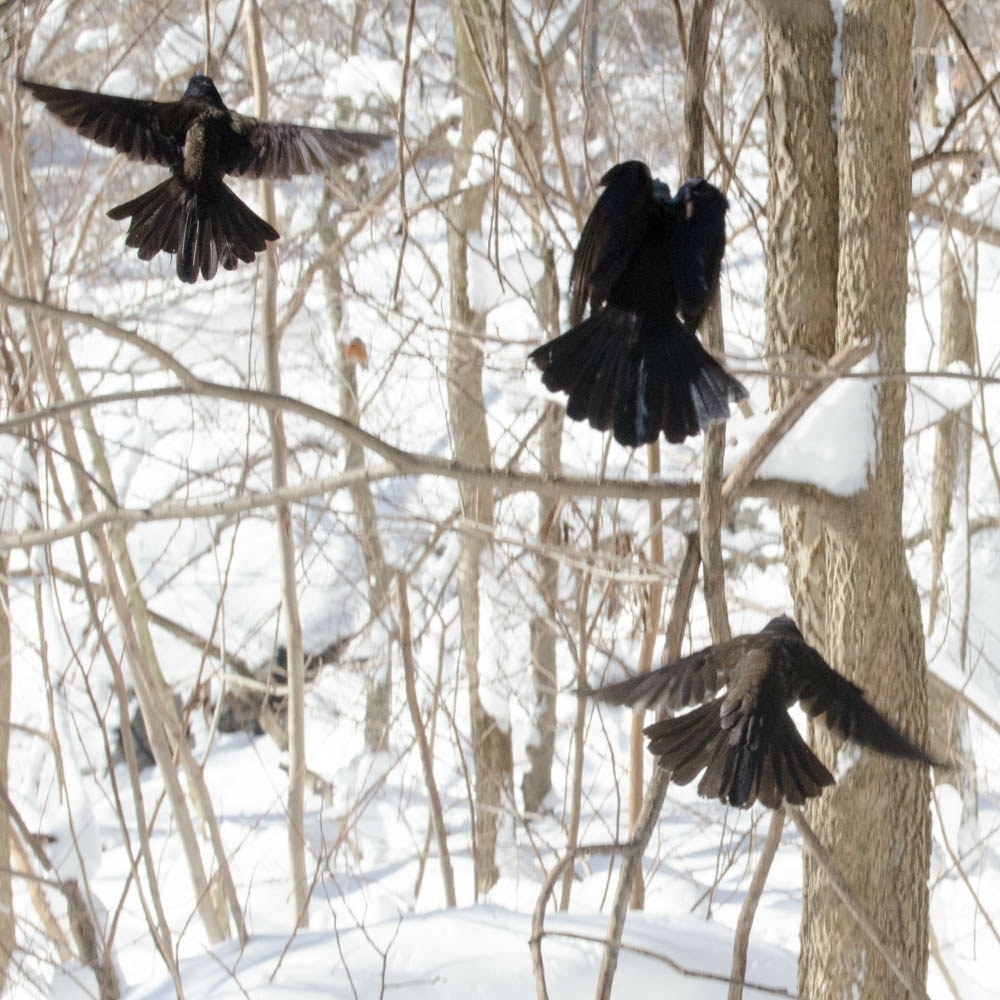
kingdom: Animalia
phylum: Chordata
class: Aves
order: Passeriformes
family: Icteridae
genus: Quiscalus
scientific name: Quiscalus quiscula
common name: Common grackle
